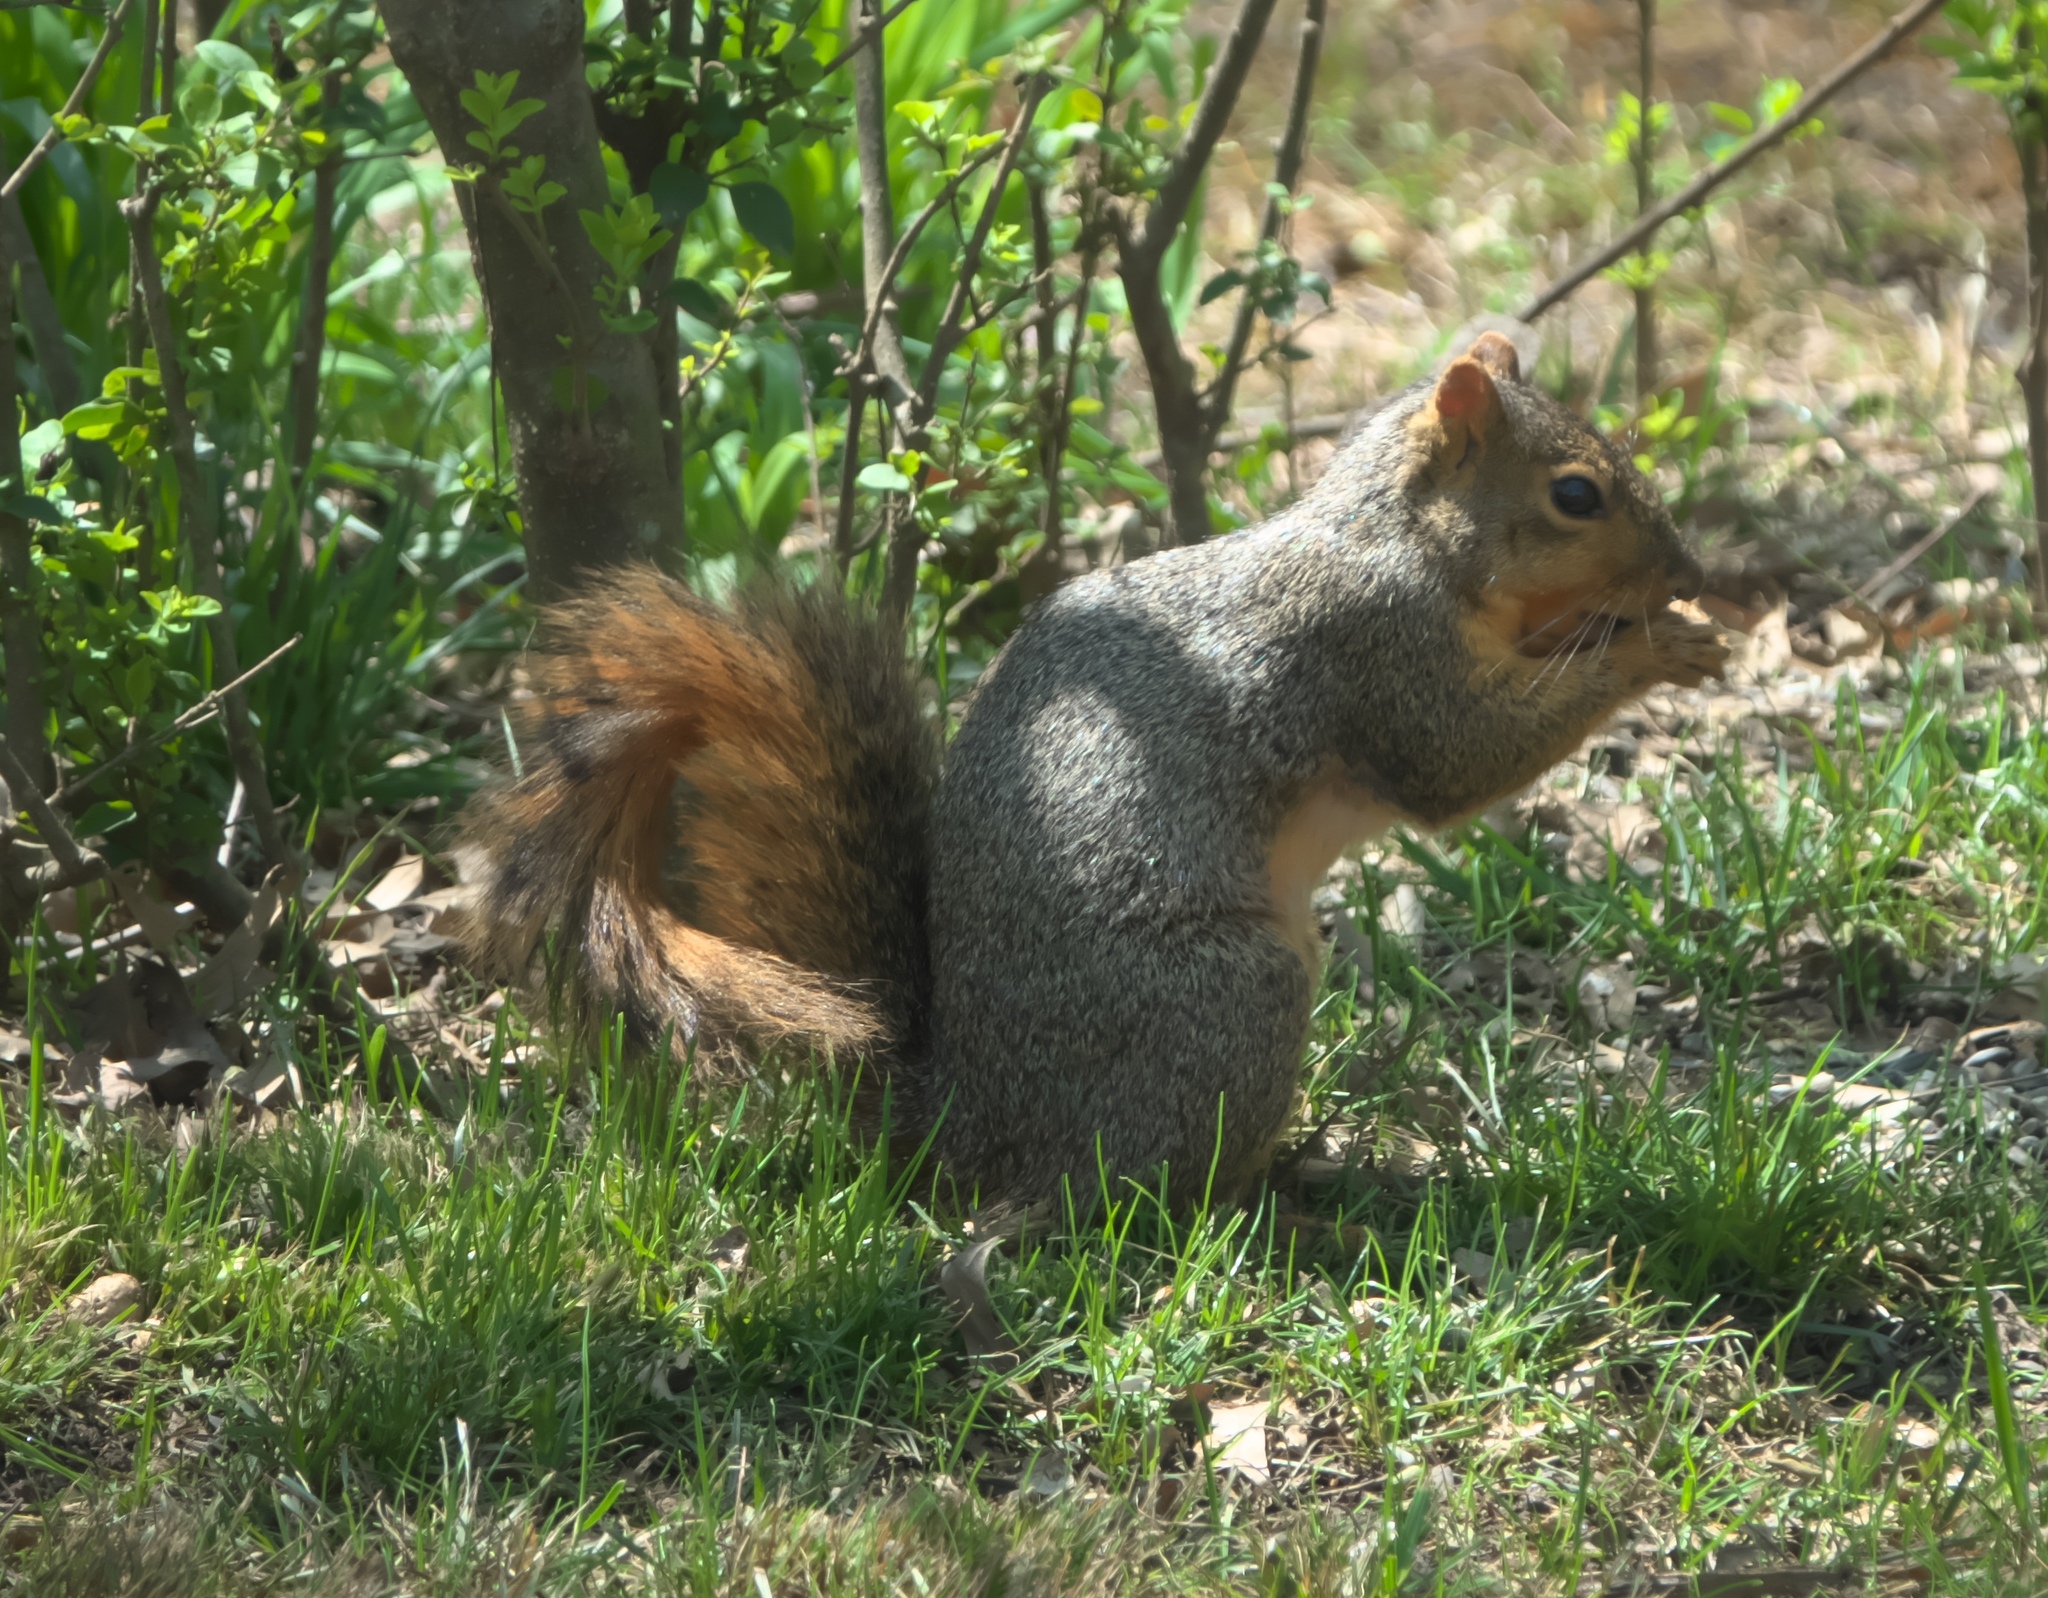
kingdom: Animalia
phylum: Chordata
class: Mammalia
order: Rodentia
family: Sciuridae
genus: Sciurus
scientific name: Sciurus niger
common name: Fox squirrel
